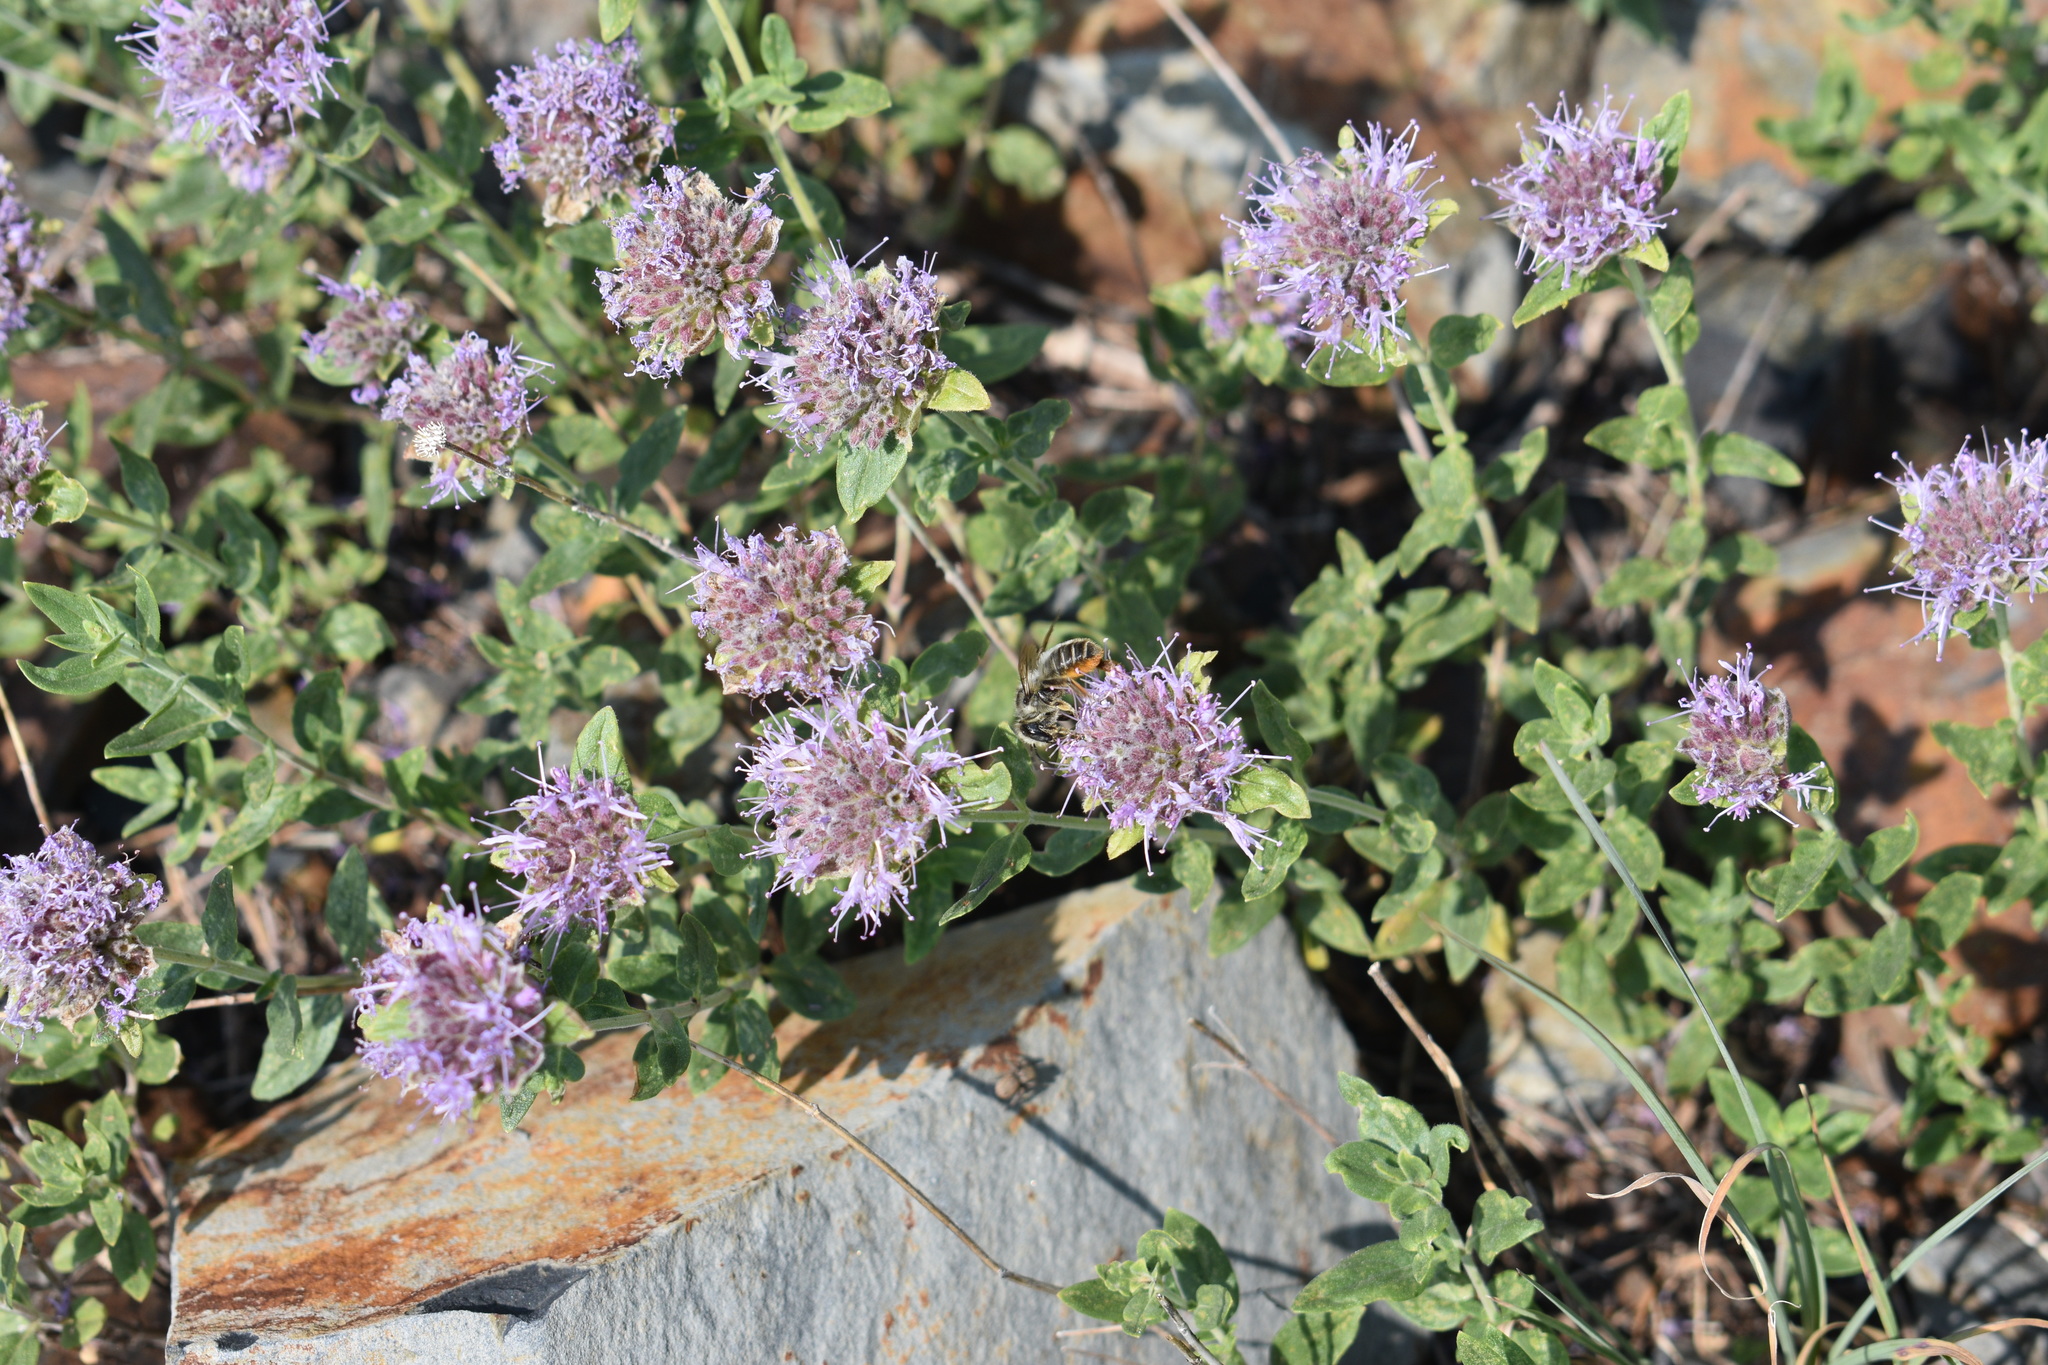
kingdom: Plantae
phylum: Tracheophyta
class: Magnoliopsida
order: Lamiales
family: Lamiaceae
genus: Monardella
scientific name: Monardella odoratissima
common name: Pacific monardella
